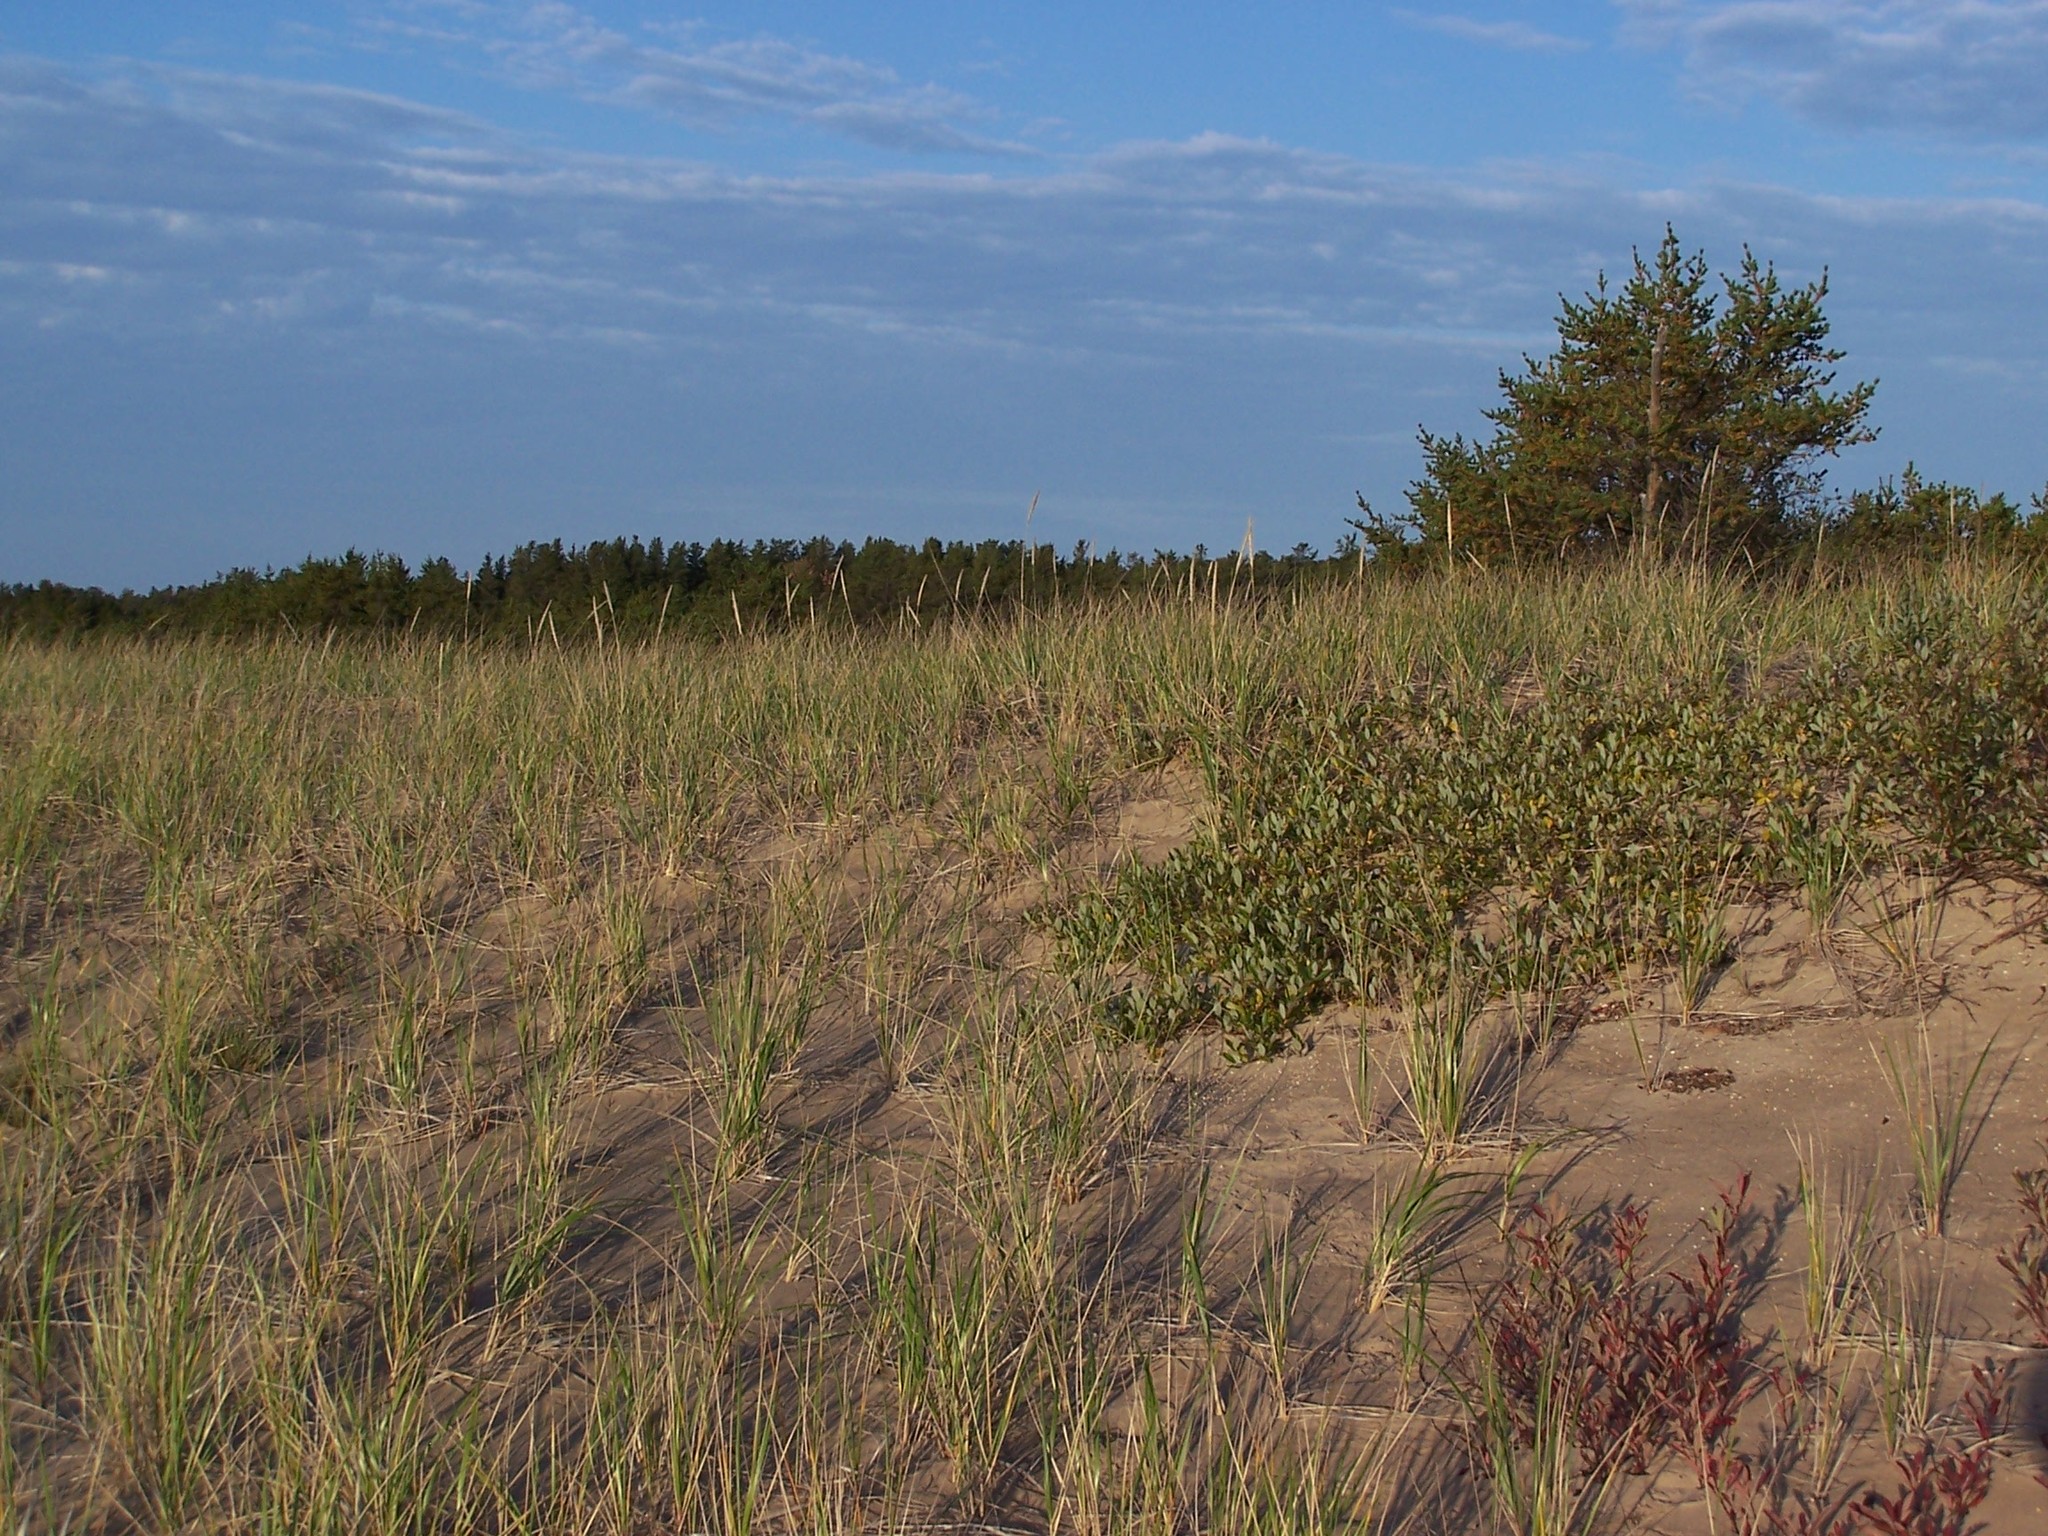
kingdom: Plantae
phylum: Tracheophyta
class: Liliopsida
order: Poales
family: Poaceae
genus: Calamagrostis
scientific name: Calamagrostis breviligulata
